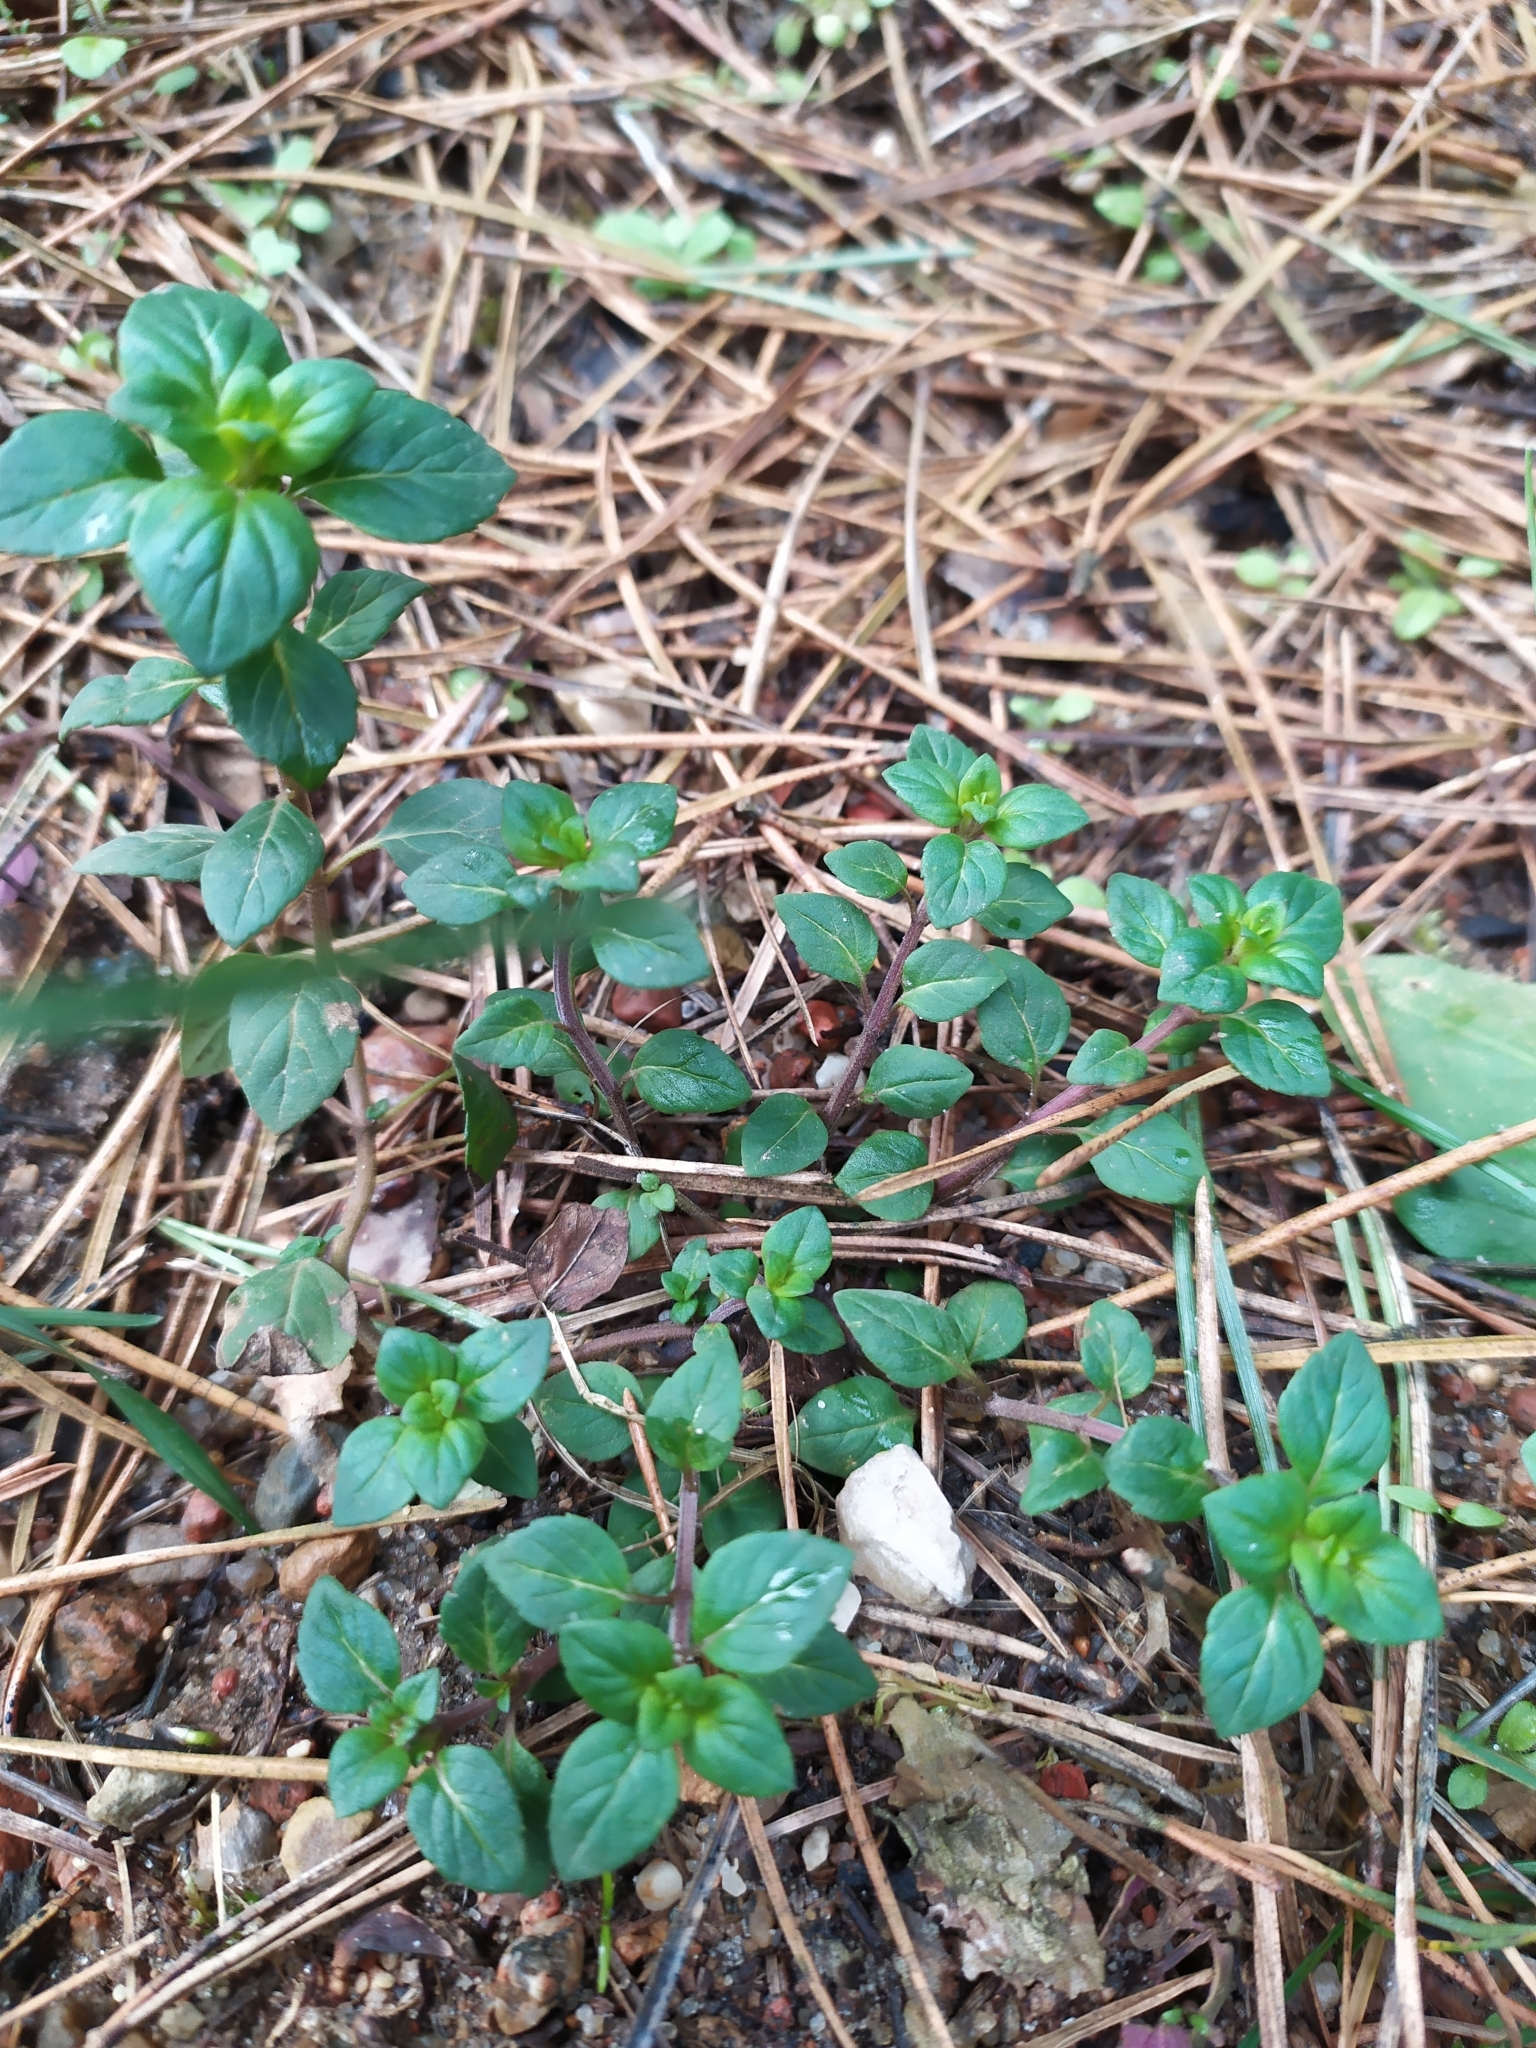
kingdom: Plantae
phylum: Tracheophyta
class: Magnoliopsida
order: Lamiales
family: Lamiaceae
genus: Clinopodium
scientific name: Clinopodium acinos
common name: Basil thyme
